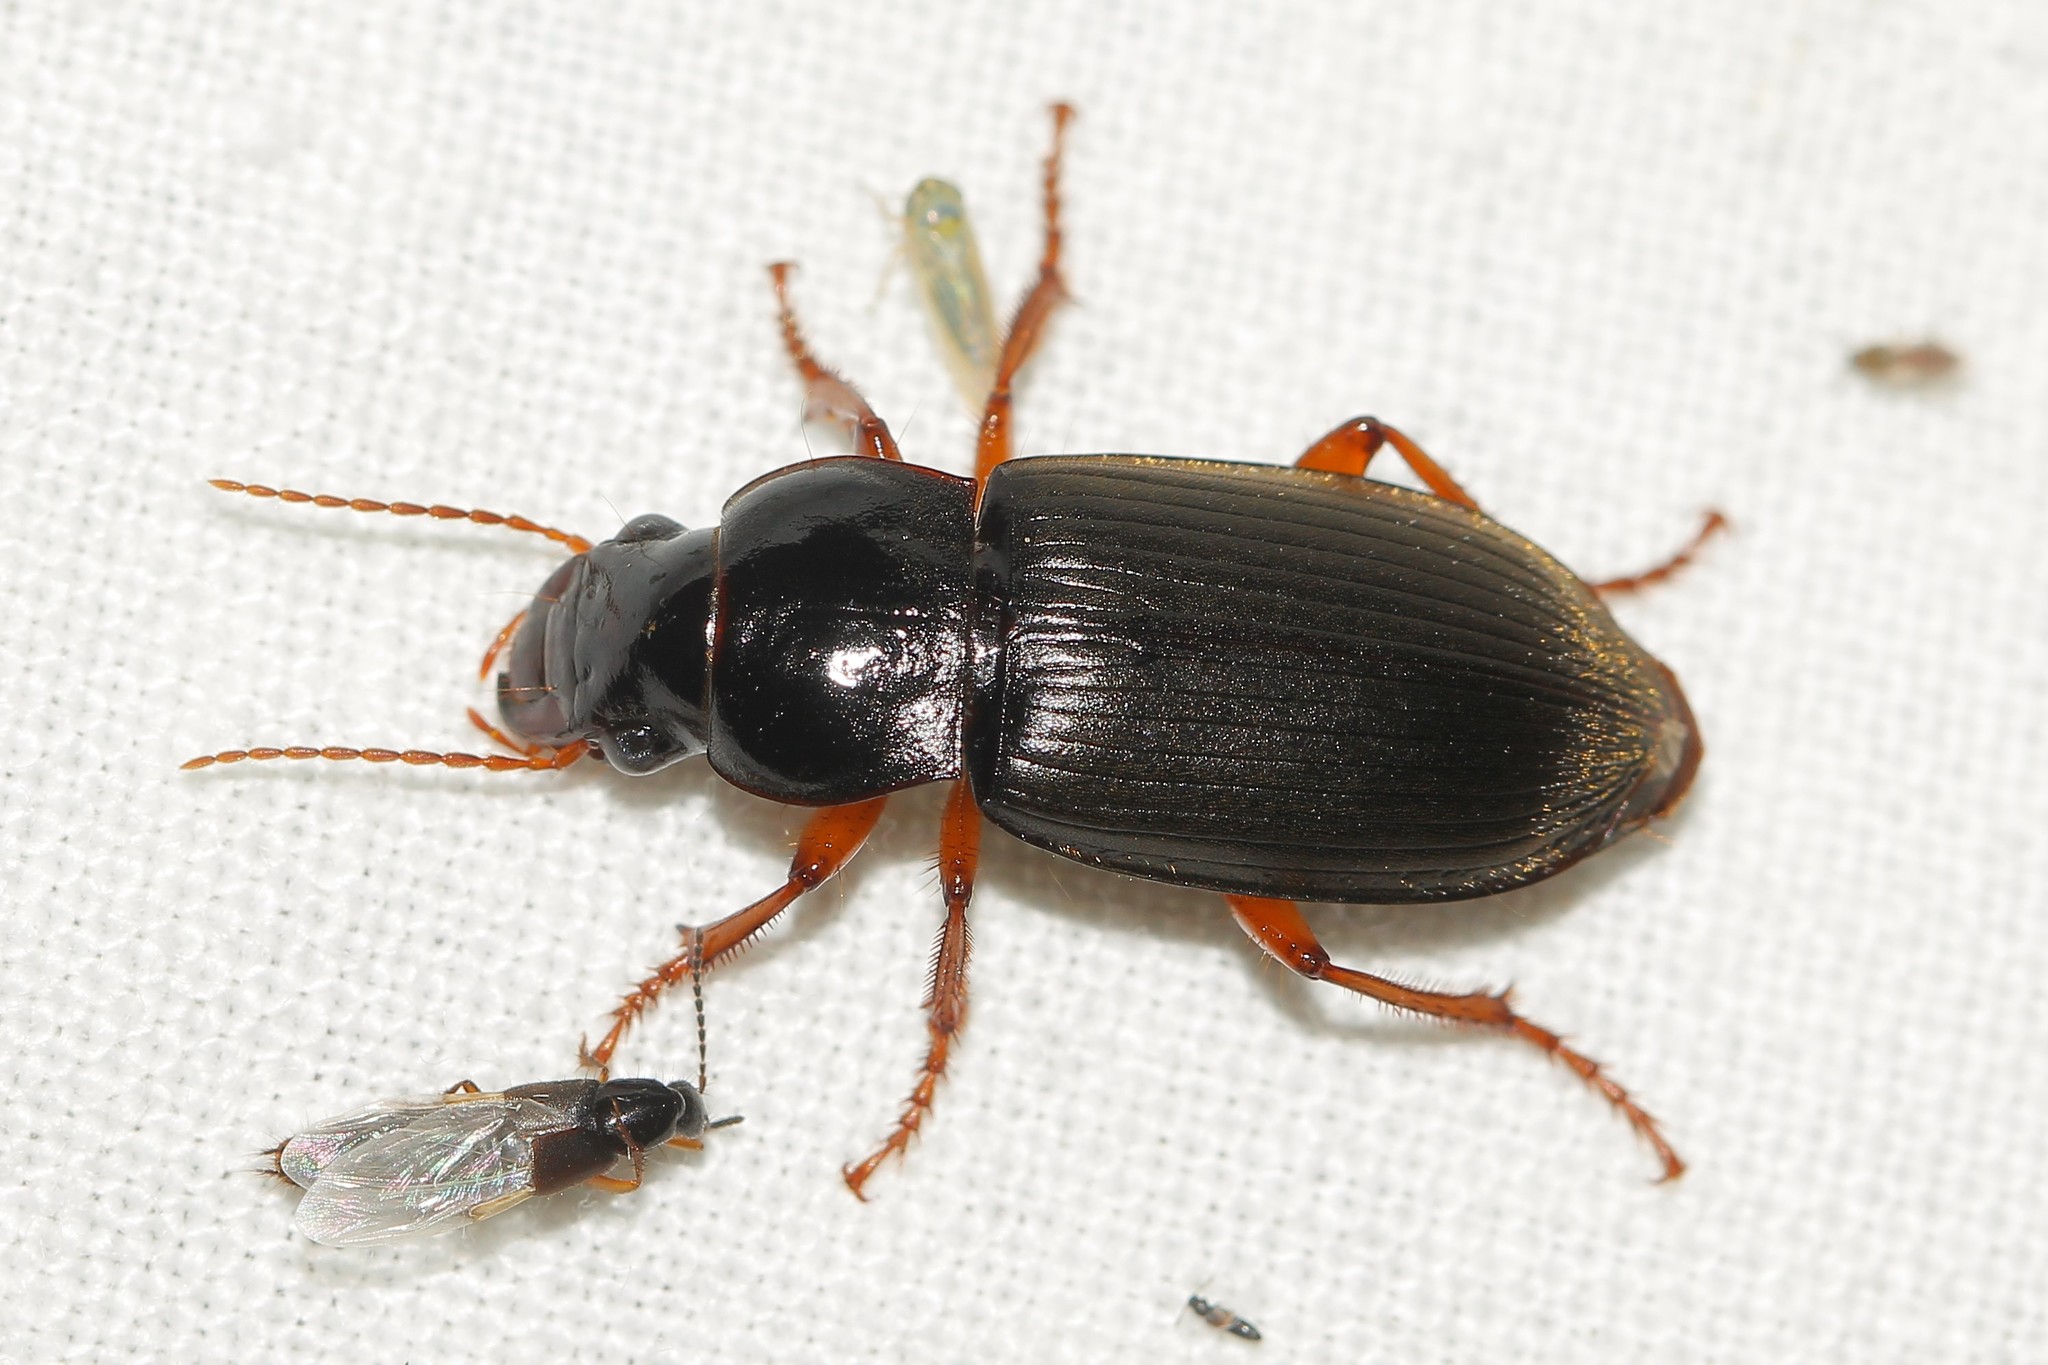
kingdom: Animalia
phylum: Arthropoda
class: Insecta
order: Coleoptera
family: Carabidae
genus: Harpalus
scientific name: Harpalus rufipes
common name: Strawberry harp ground beetle
